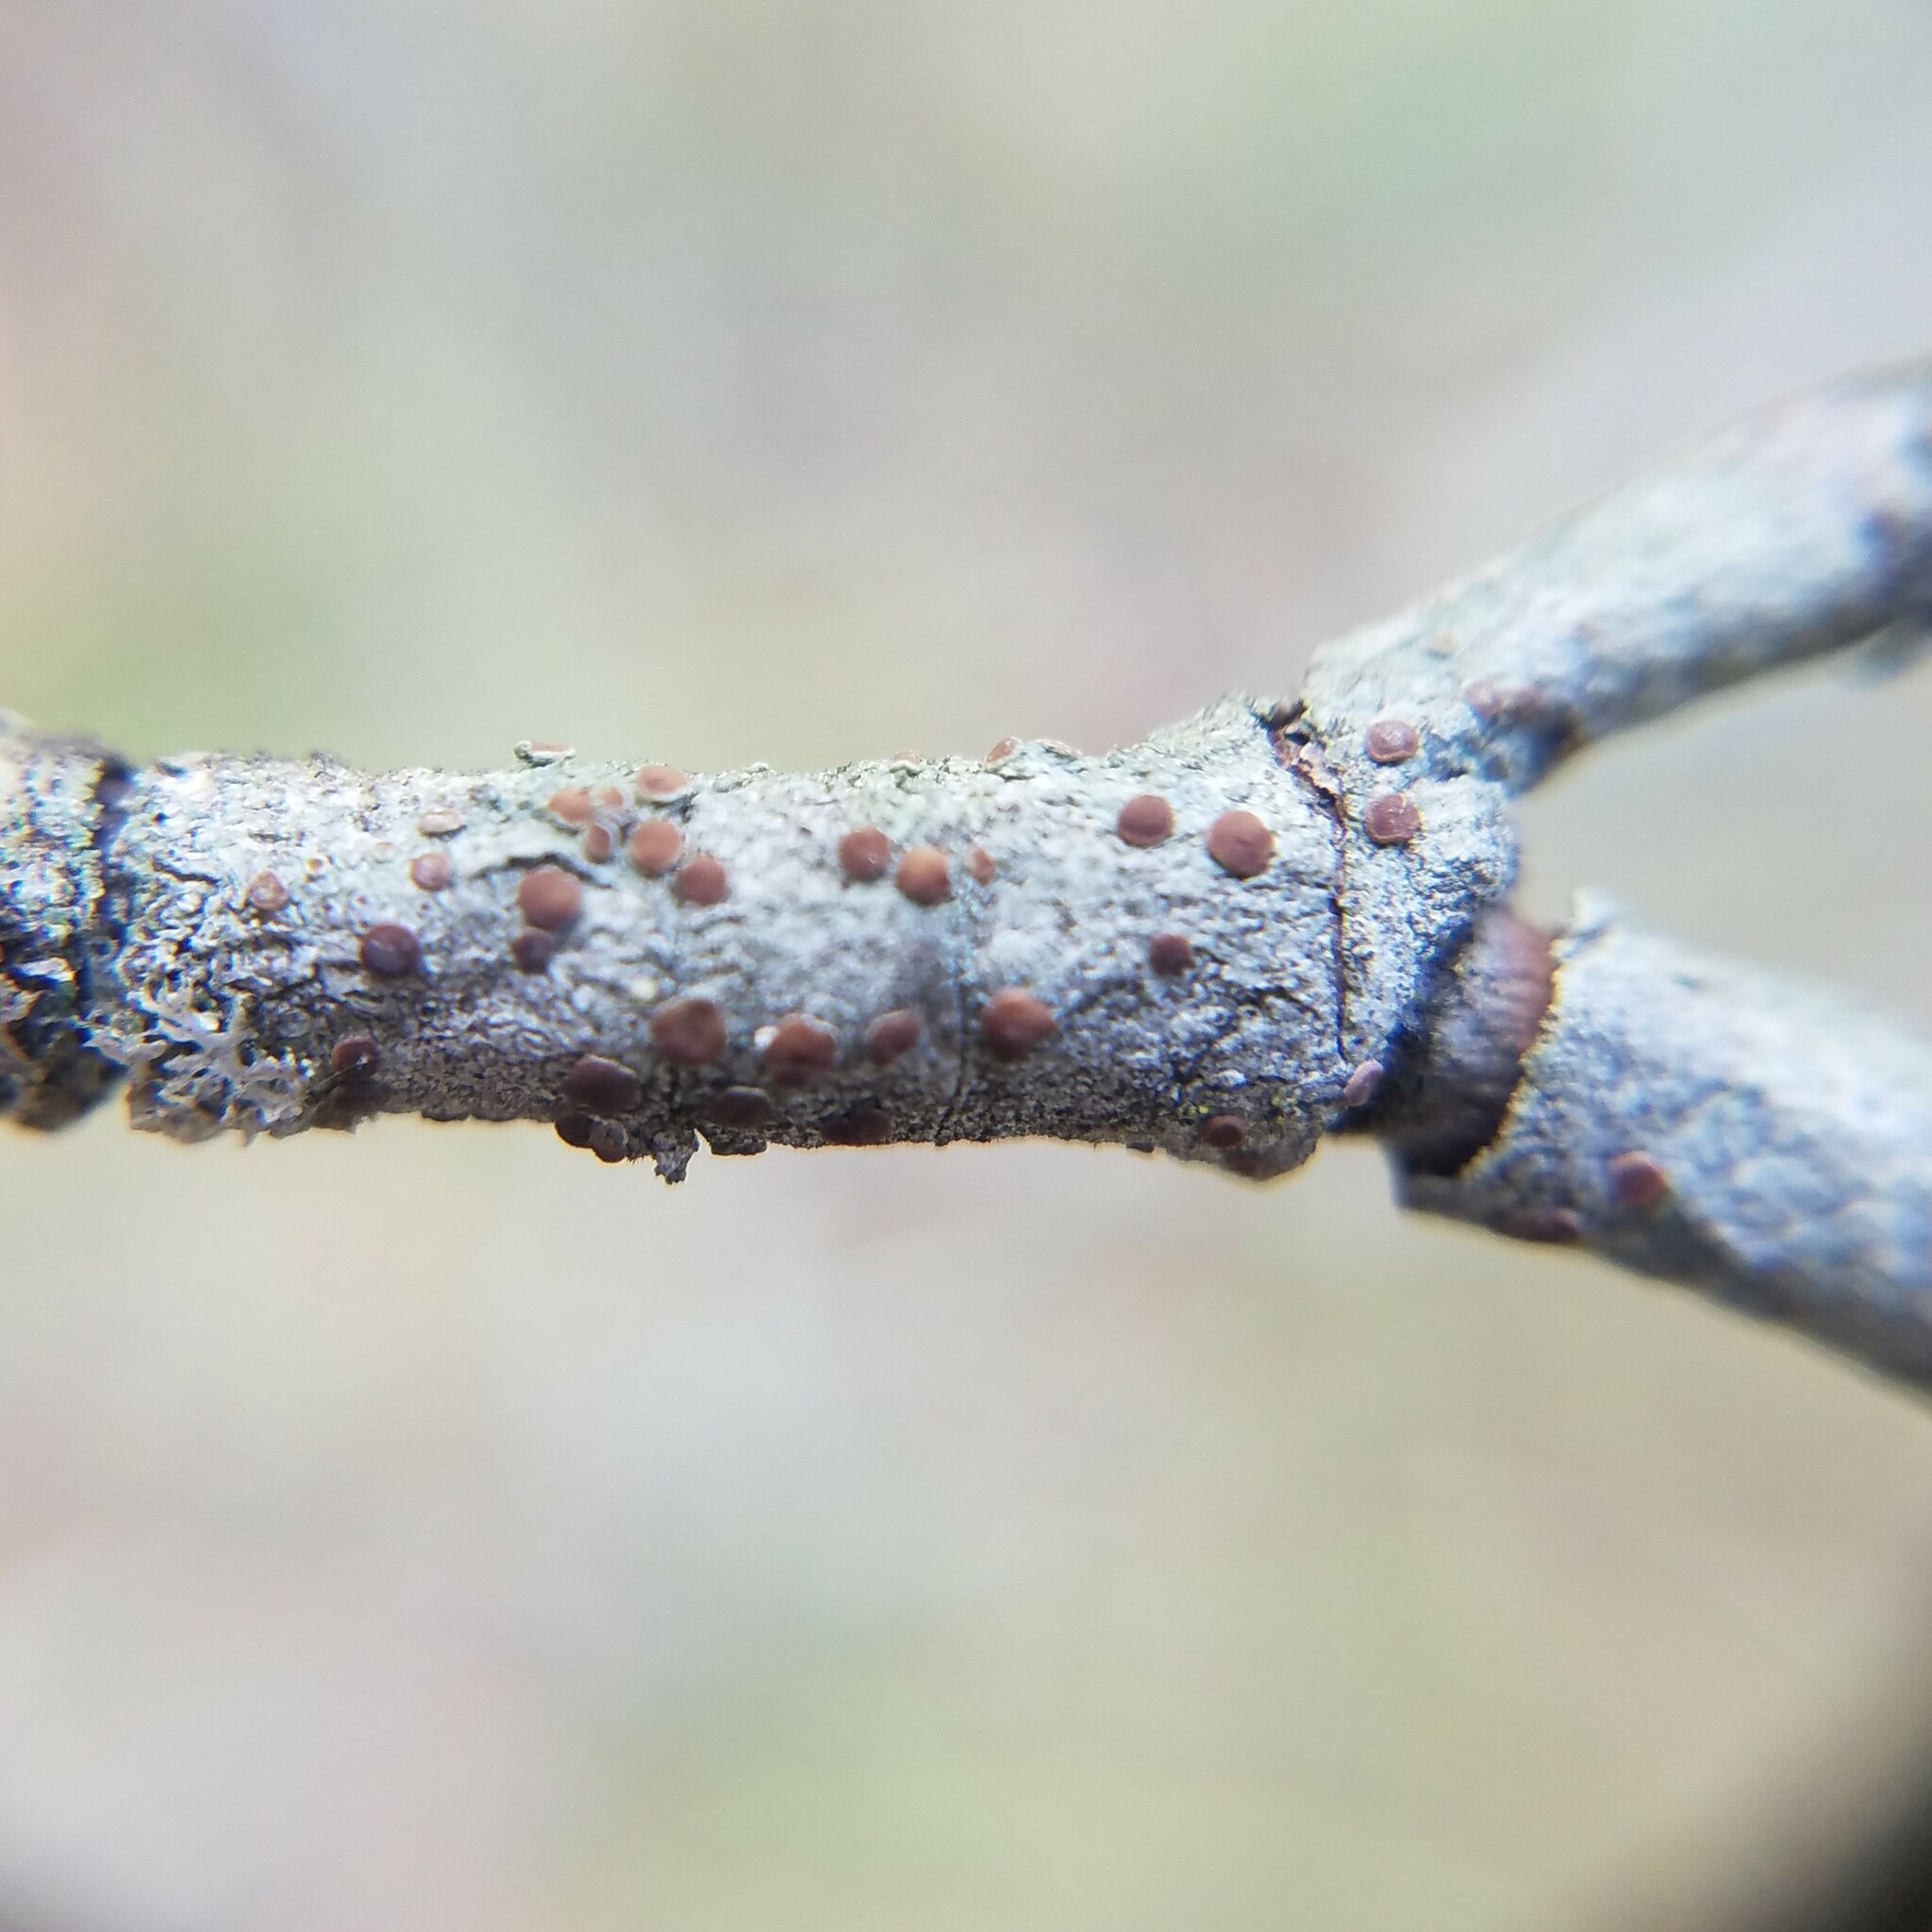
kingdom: Fungi
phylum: Ascomycota
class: Lecanoromycetes
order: Teloschistales
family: Teloschistaceae
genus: Obscuroplaca
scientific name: Obscuroplaca camptidia
